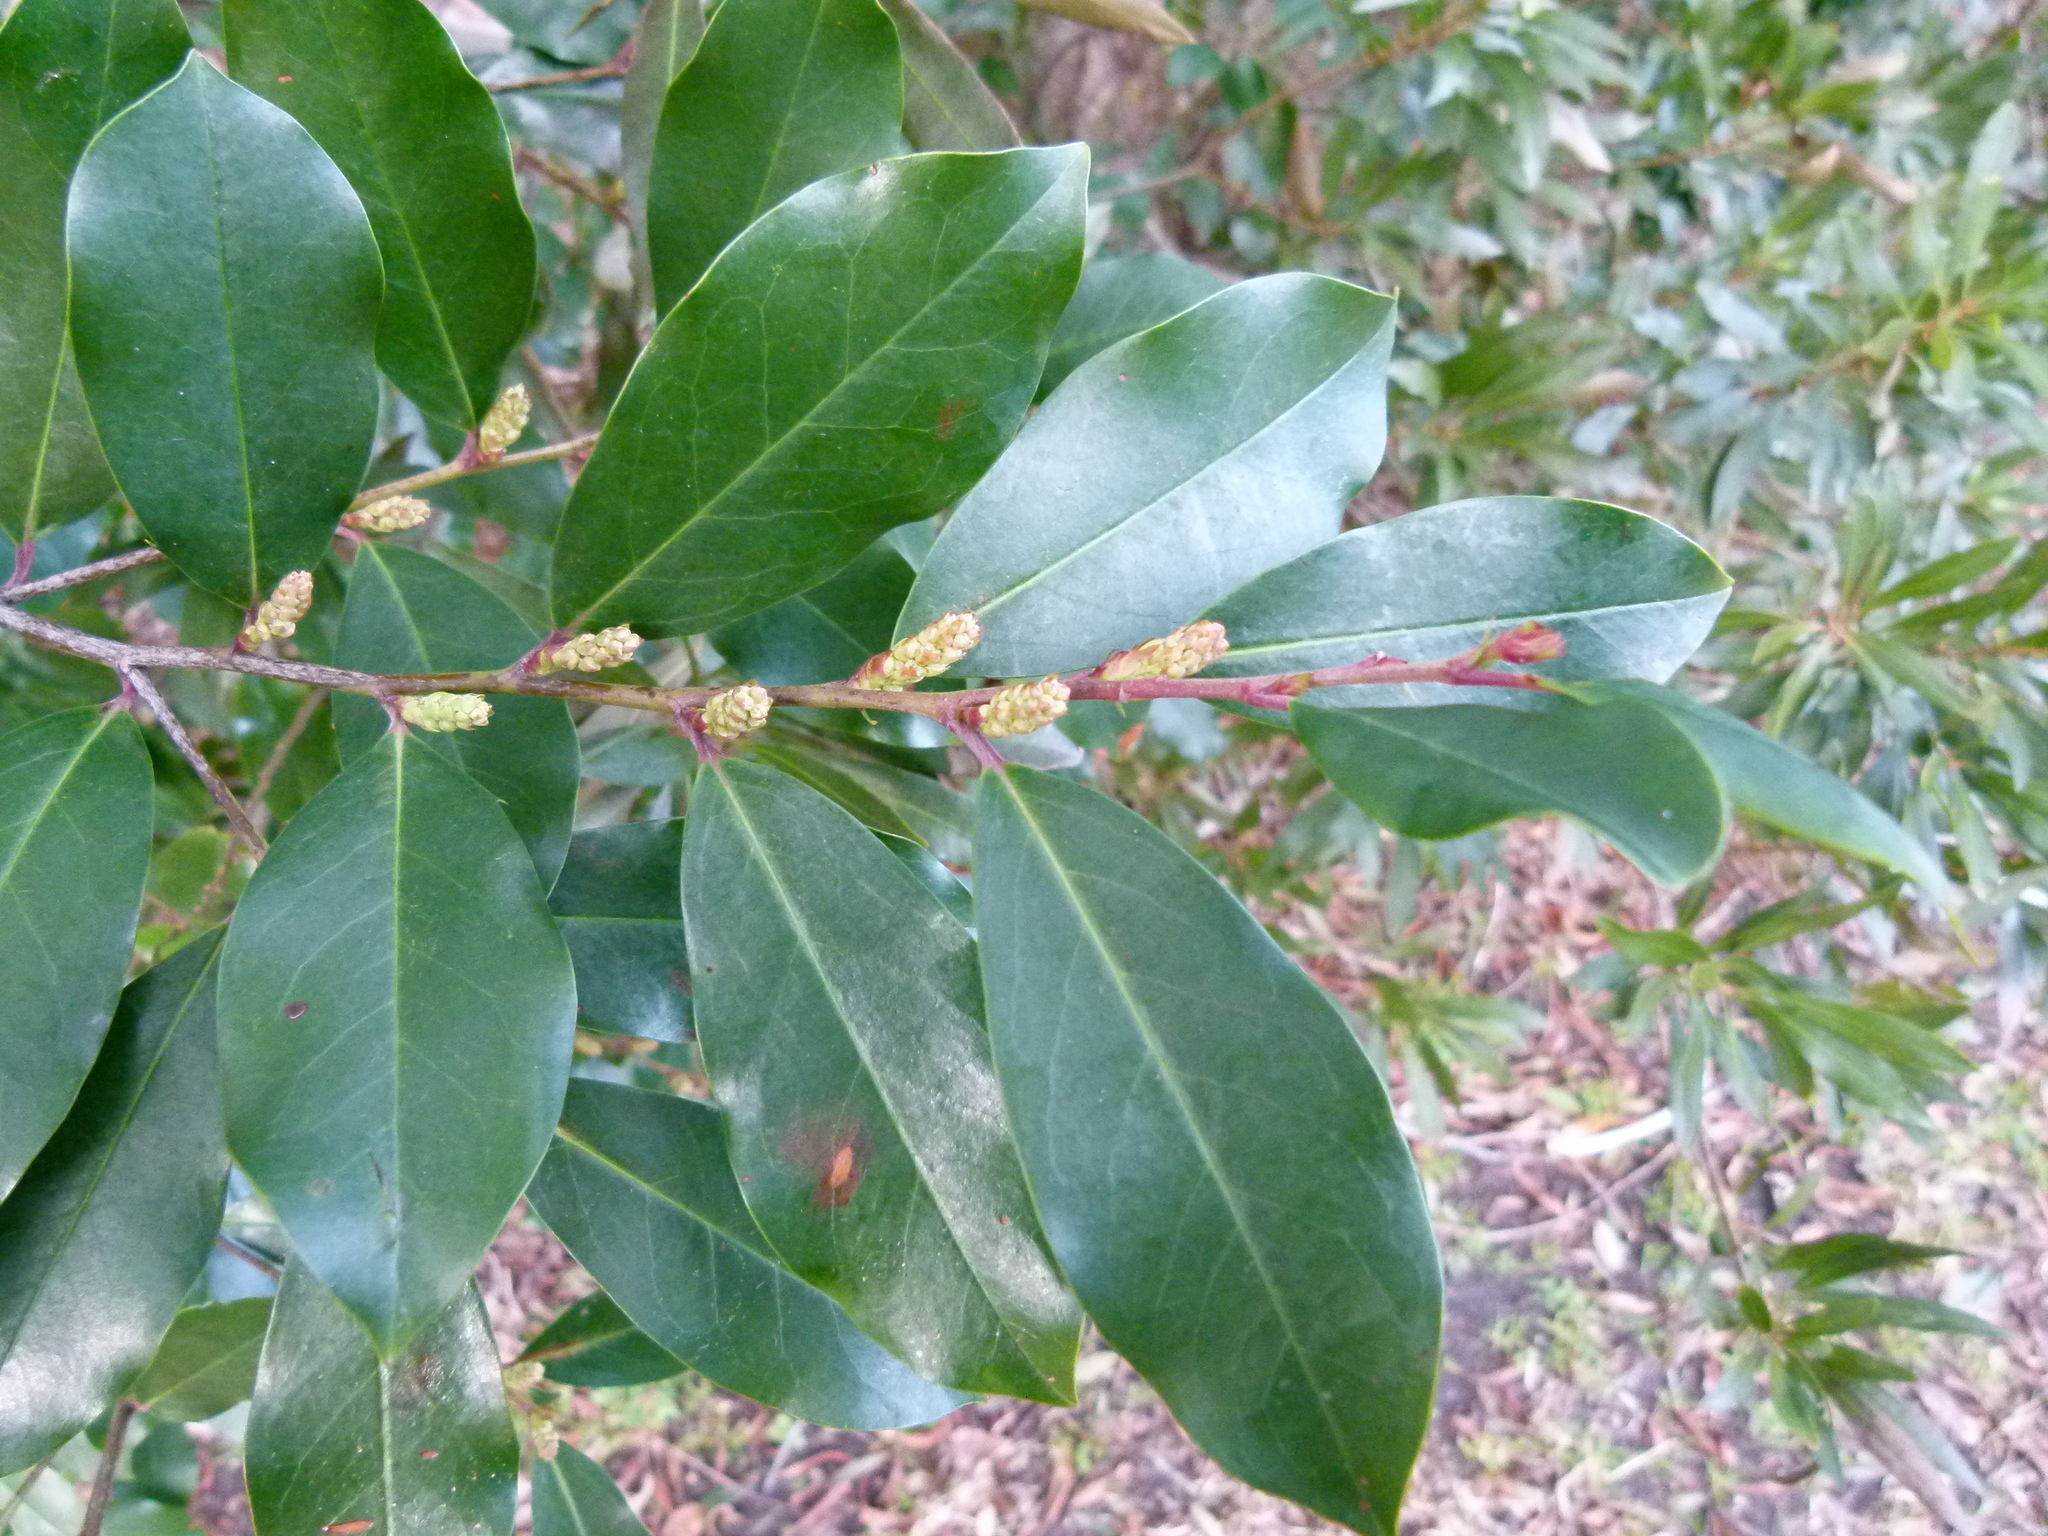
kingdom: Plantae
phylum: Tracheophyta
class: Magnoliopsida
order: Rosales
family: Rosaceae
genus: Prunus
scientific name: Prunus caroliniana
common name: Carolina laurel cherry
